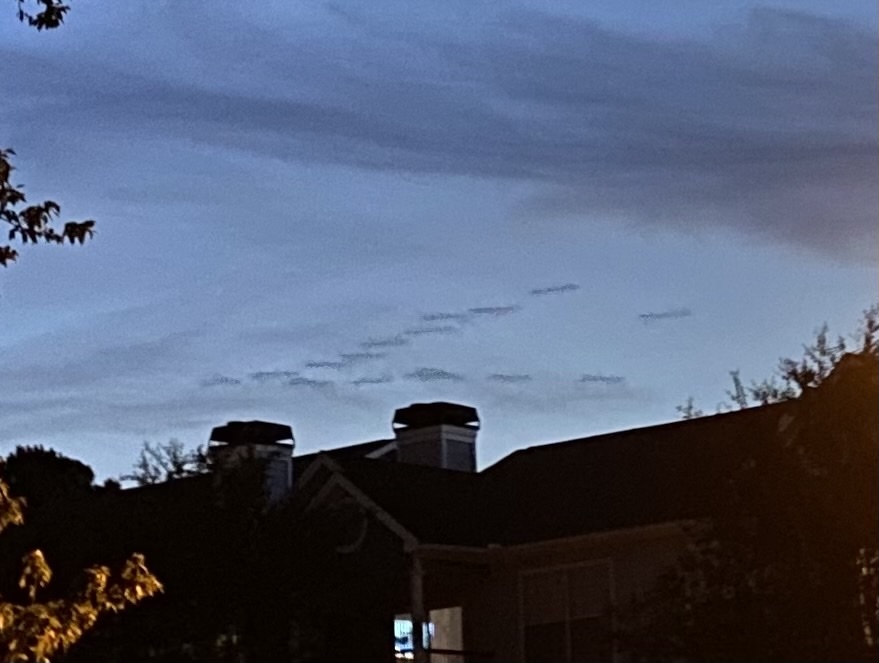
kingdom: Animalia
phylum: Chordata
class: Aves
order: Anseriformes
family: Anatidae
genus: Branta
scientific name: Branta
